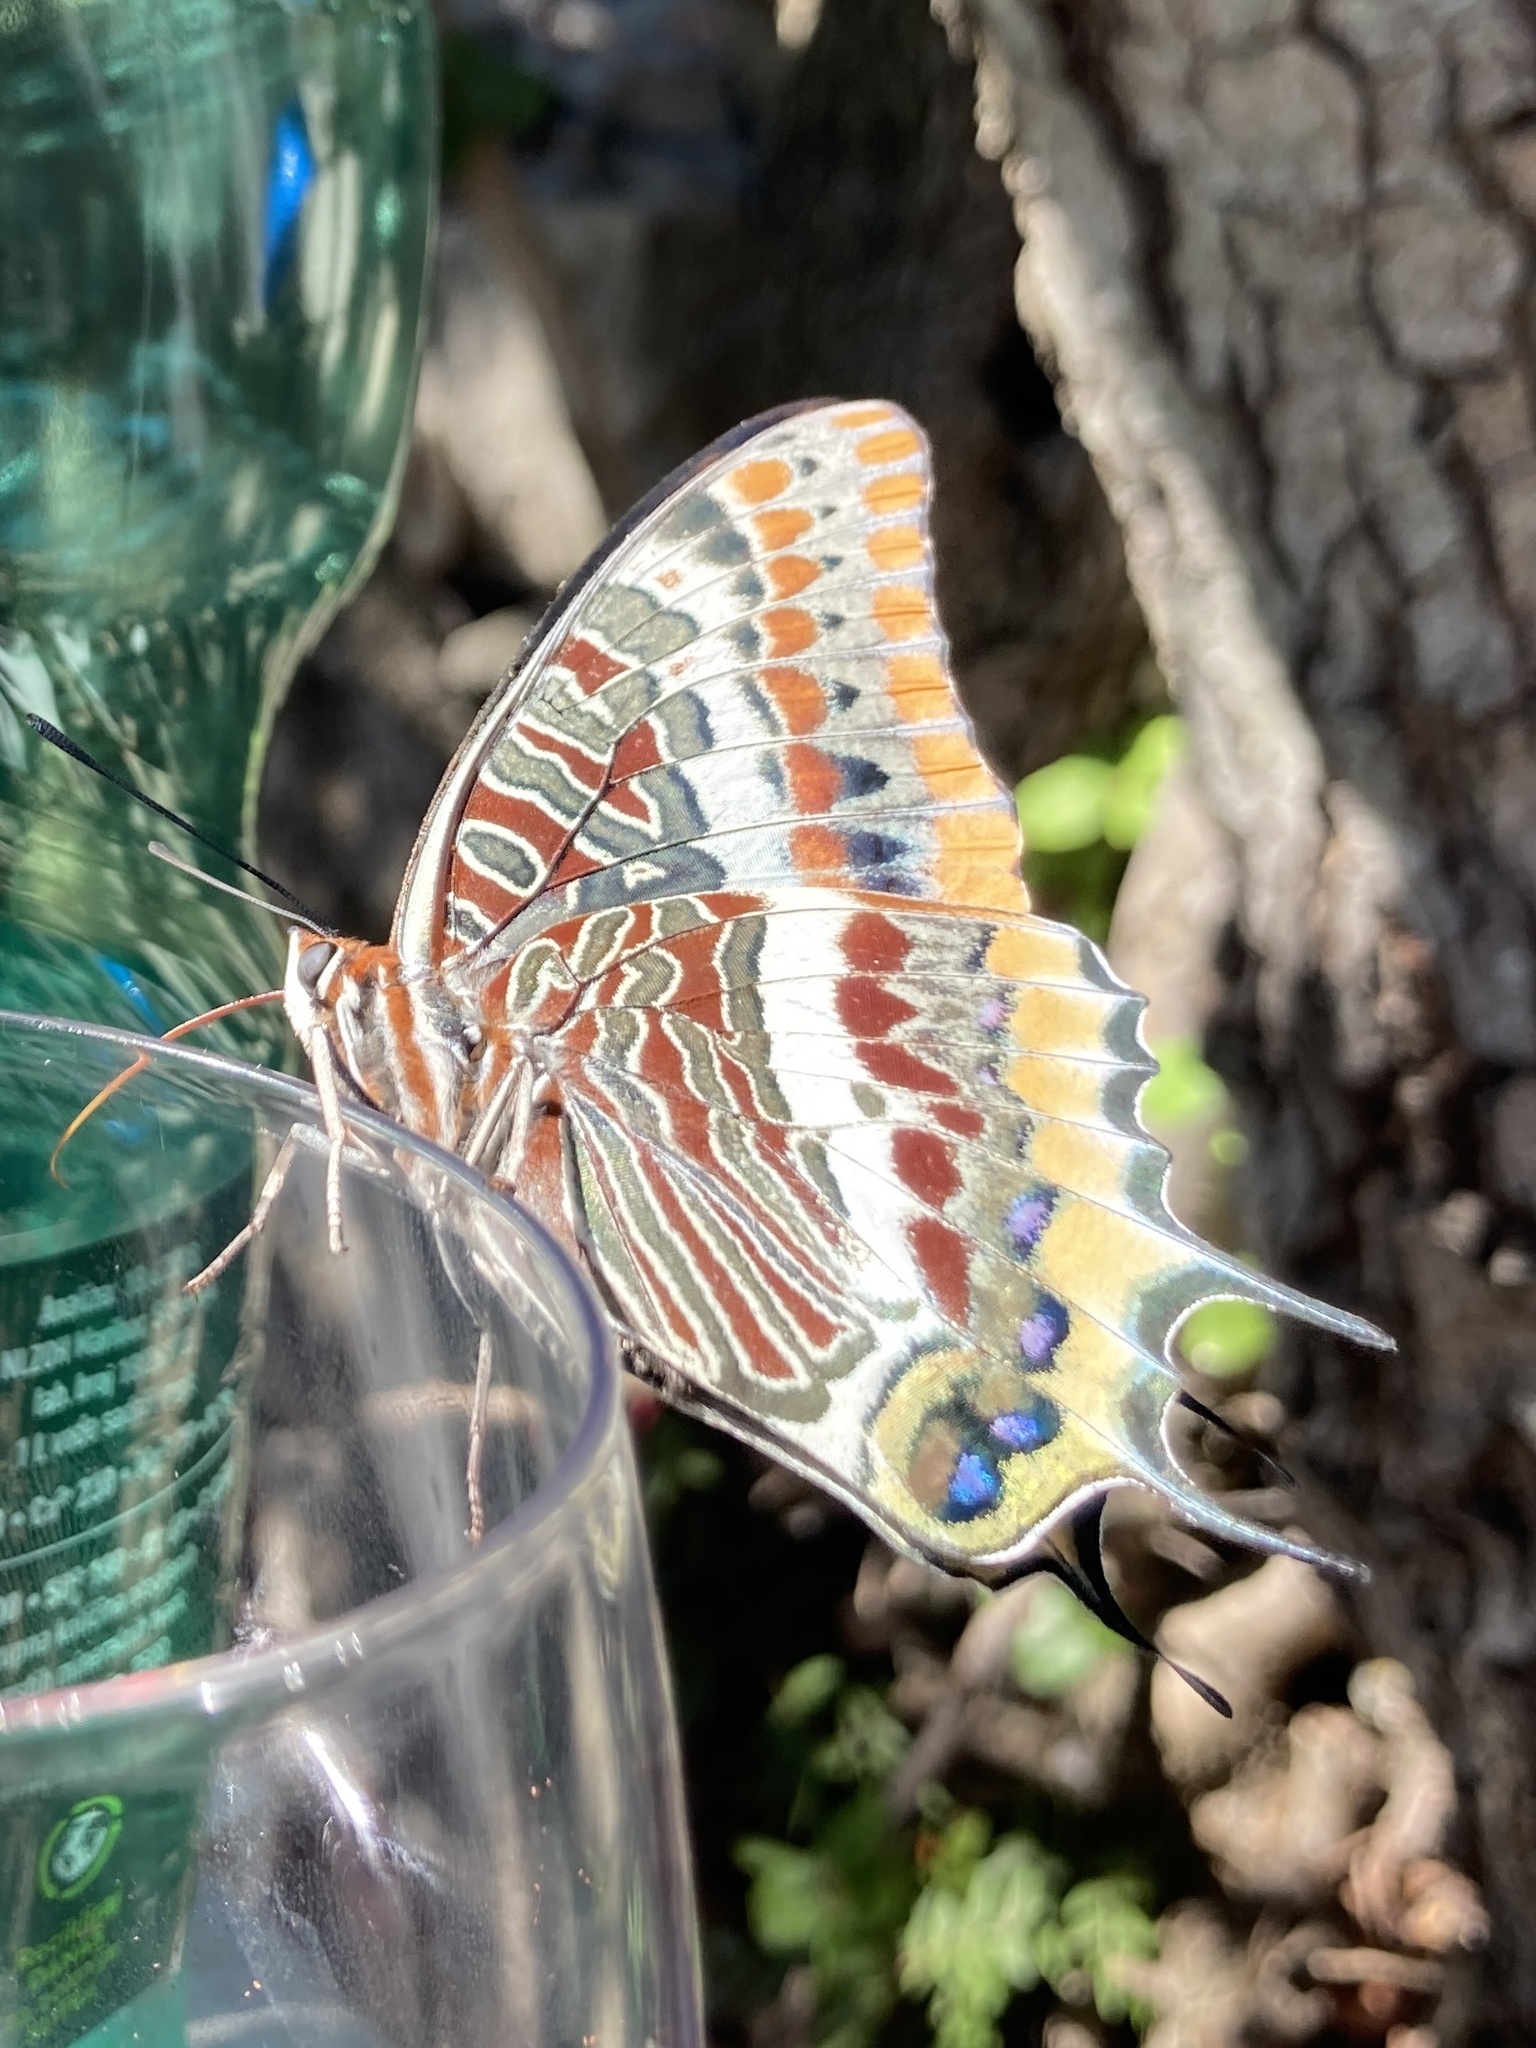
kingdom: Animalia
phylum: Arthropoda
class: Insecta
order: Lepidoptera
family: Nymphalidae
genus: Charaxes
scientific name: Charaxes jasius
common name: Two tailed pasha
